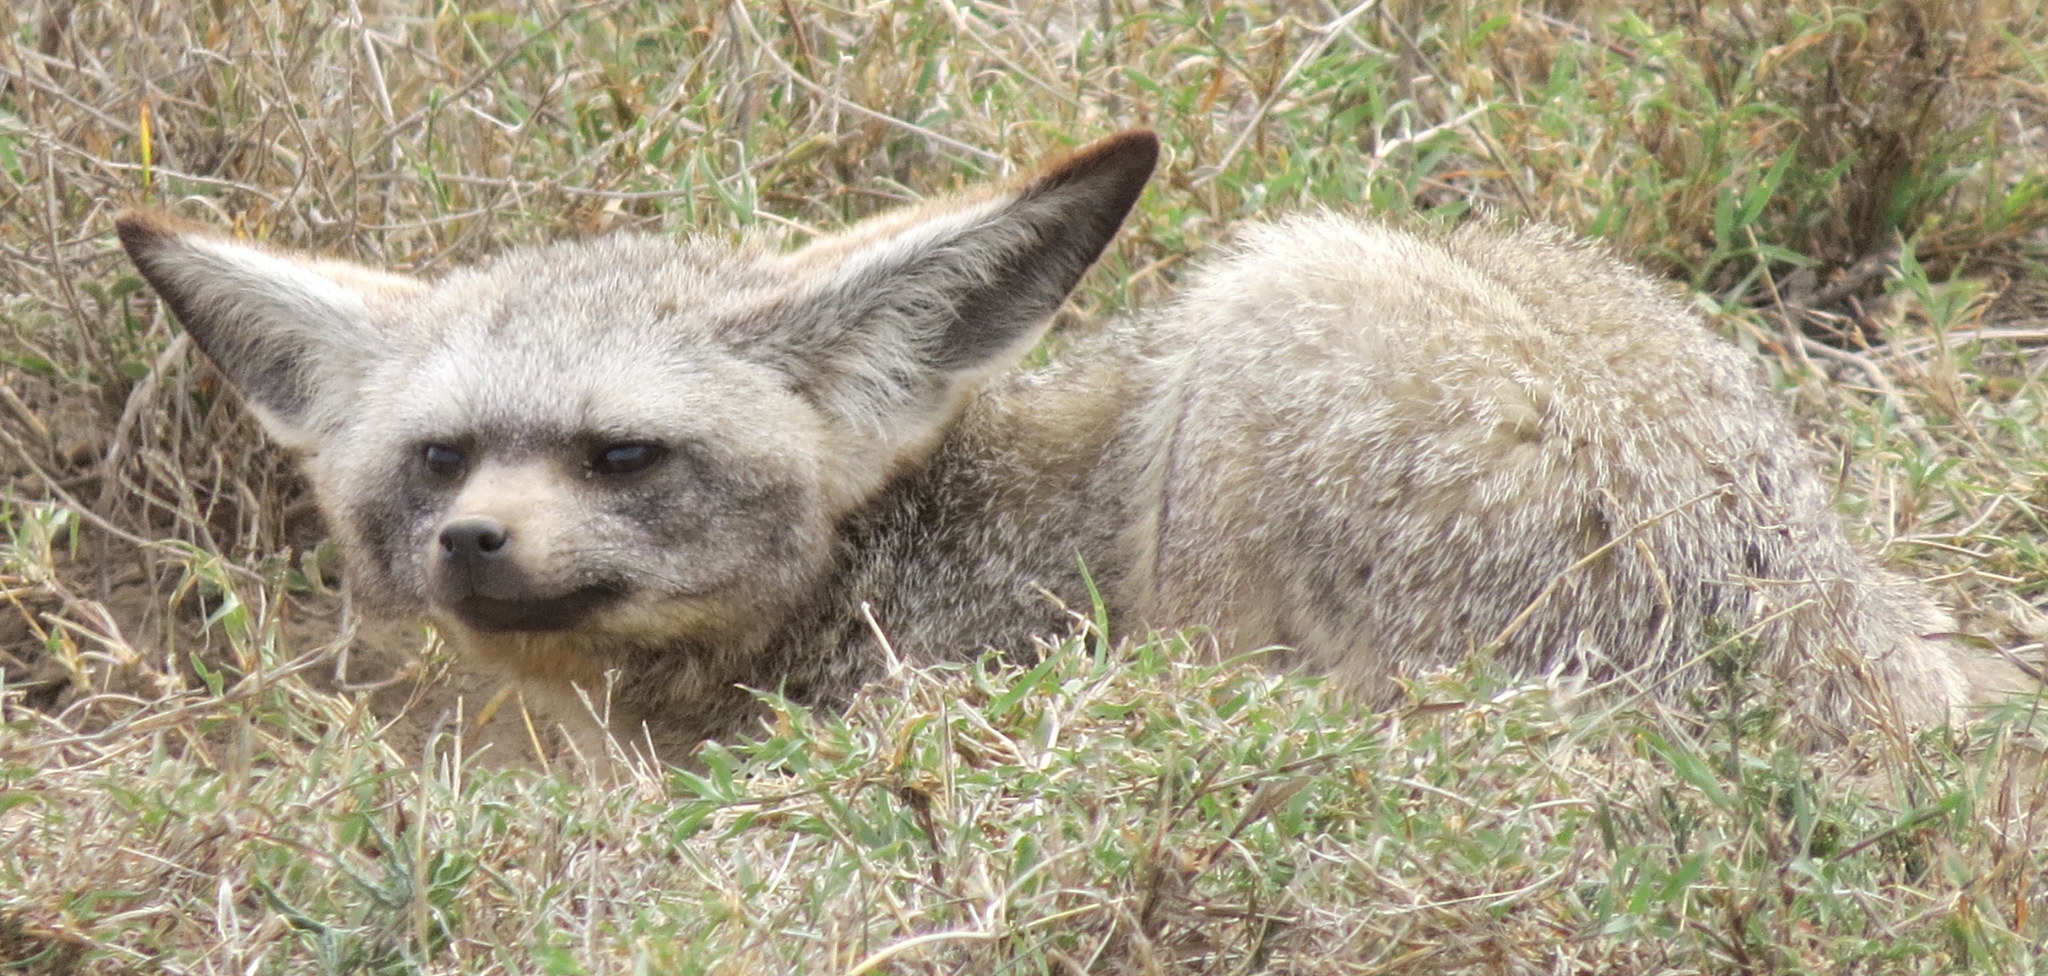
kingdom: Animalia
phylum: Chordata
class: Mammalia
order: Carnivora
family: Canidae
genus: Otocyon
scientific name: Otocyon megalotis
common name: Bat-eared fox
